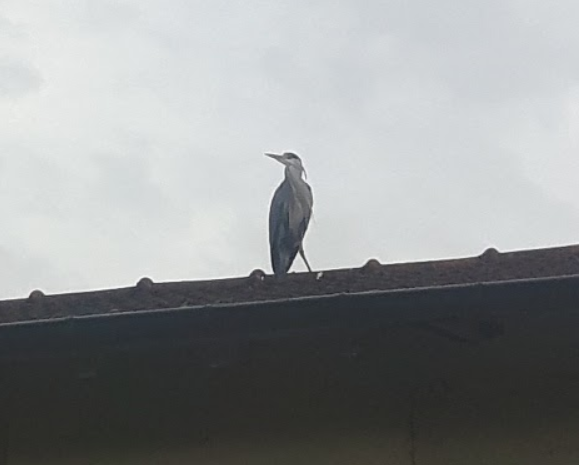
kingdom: Animalia
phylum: Chordata
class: Aves
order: Pelecaniformes
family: Ardeidae
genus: Ardea
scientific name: Ardea cinerea
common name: Grey heron
